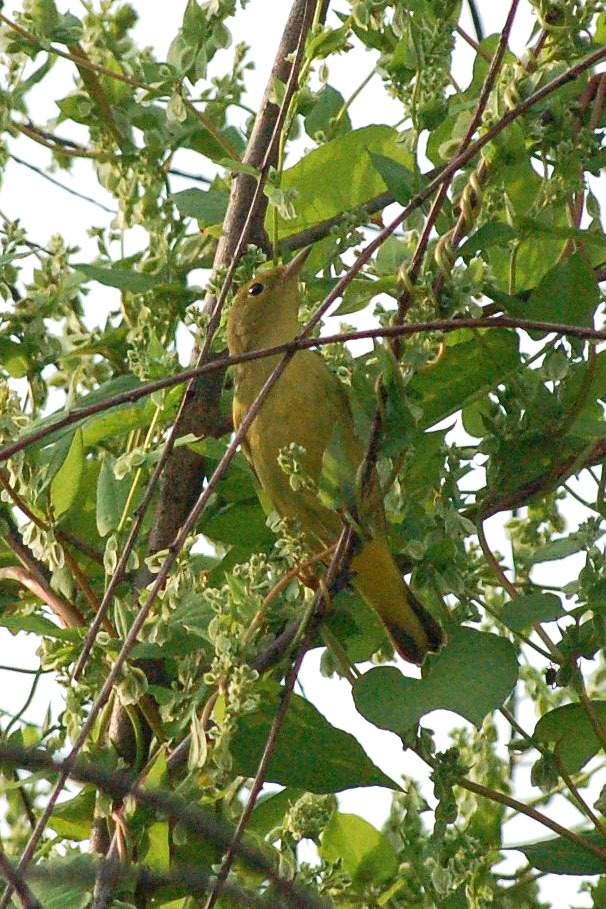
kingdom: Animalia
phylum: Chordata
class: Aves
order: Passeriformes
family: Parulidae
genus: Setophaga
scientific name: Setophaga petechia
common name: Yellow warbler
